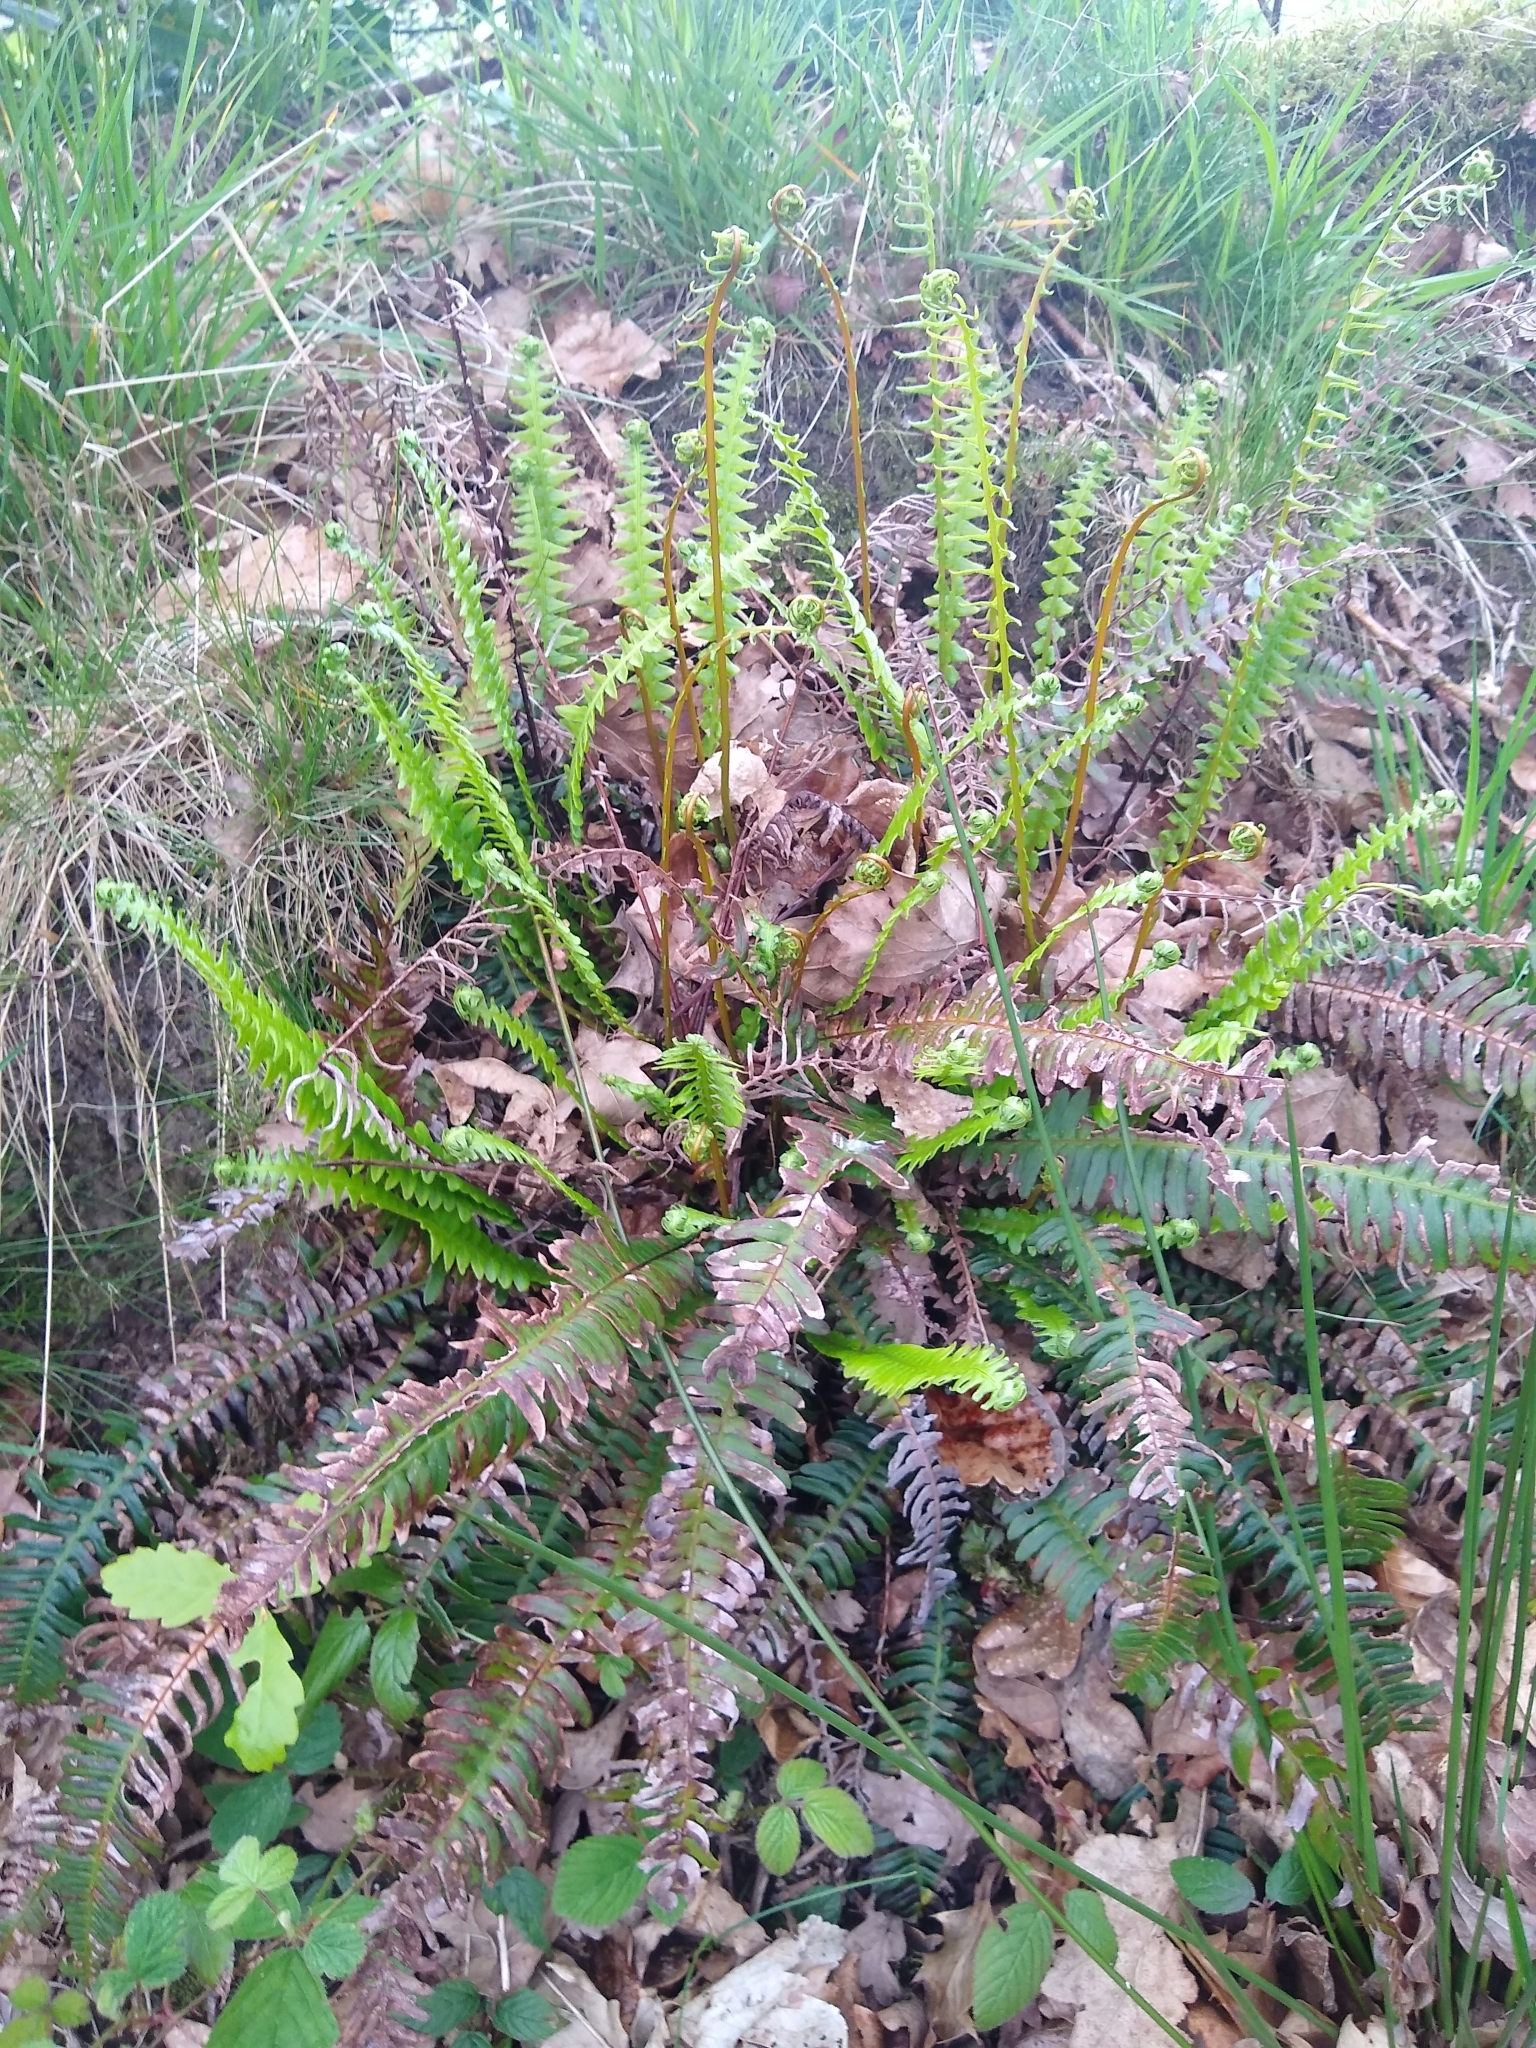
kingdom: Plantae
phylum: Tracheophyta
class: Polypodiopsida
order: Polypodiales
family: Blechnaceae
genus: Struthiopteris
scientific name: Struthiopteris spicant
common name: Deer fern
